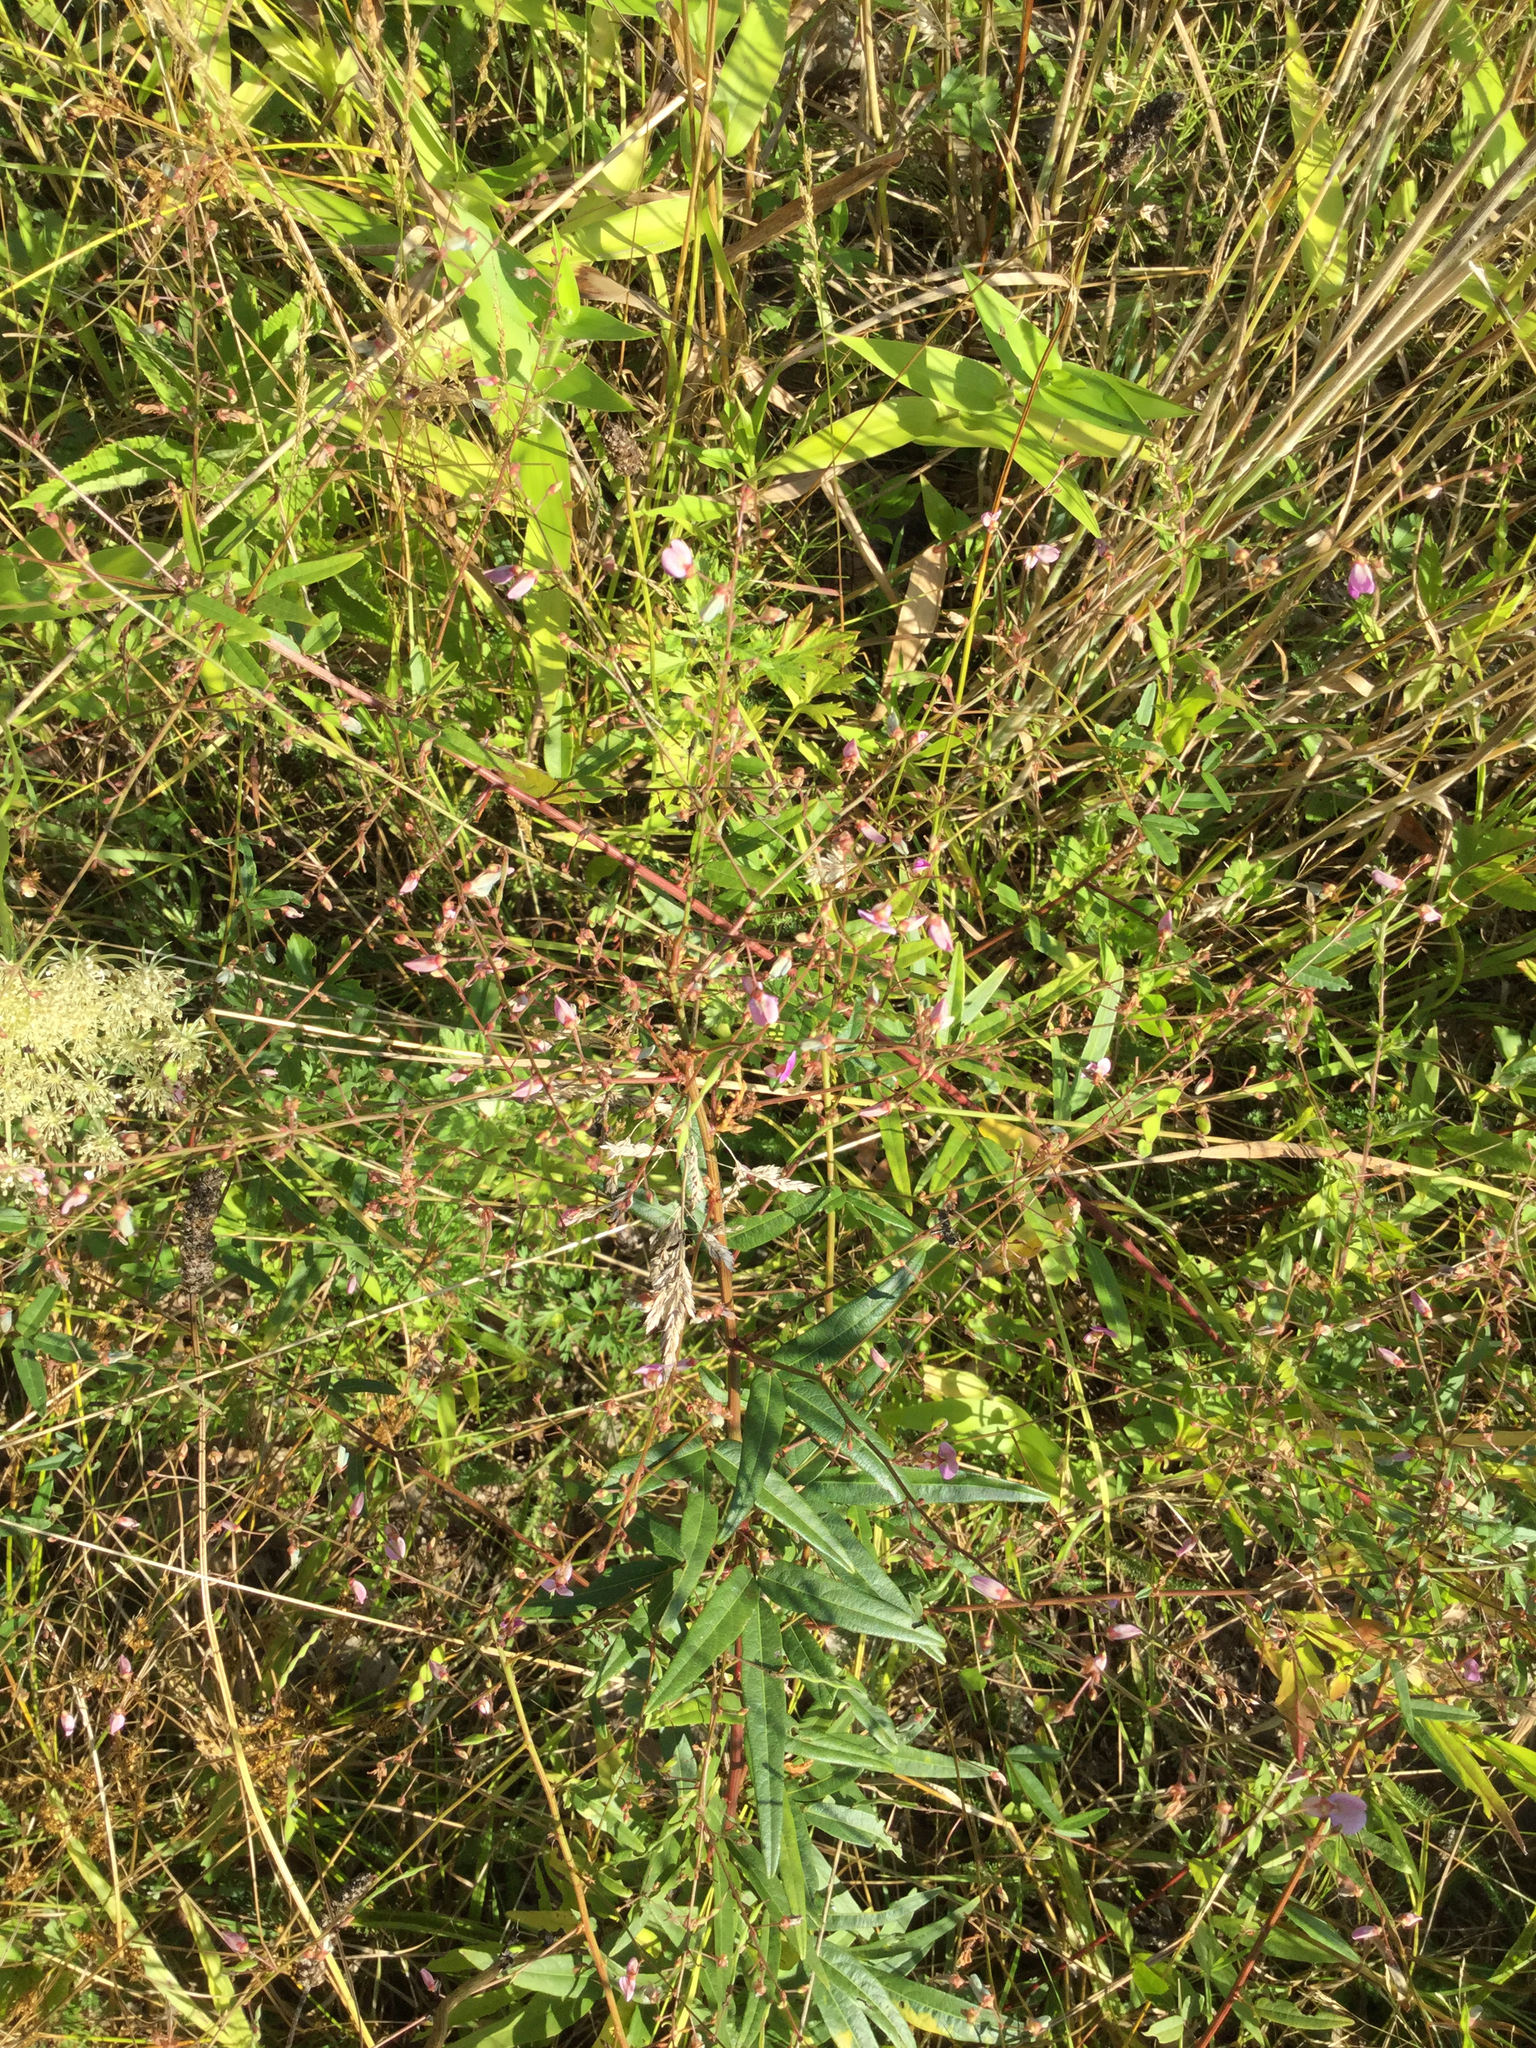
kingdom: Plantae
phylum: Tracheophyta
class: Magnoliopsida
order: Fabales
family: Fabaceae
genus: Desmodium
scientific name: Desmodium paniculatum
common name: Panicled tick-clover
